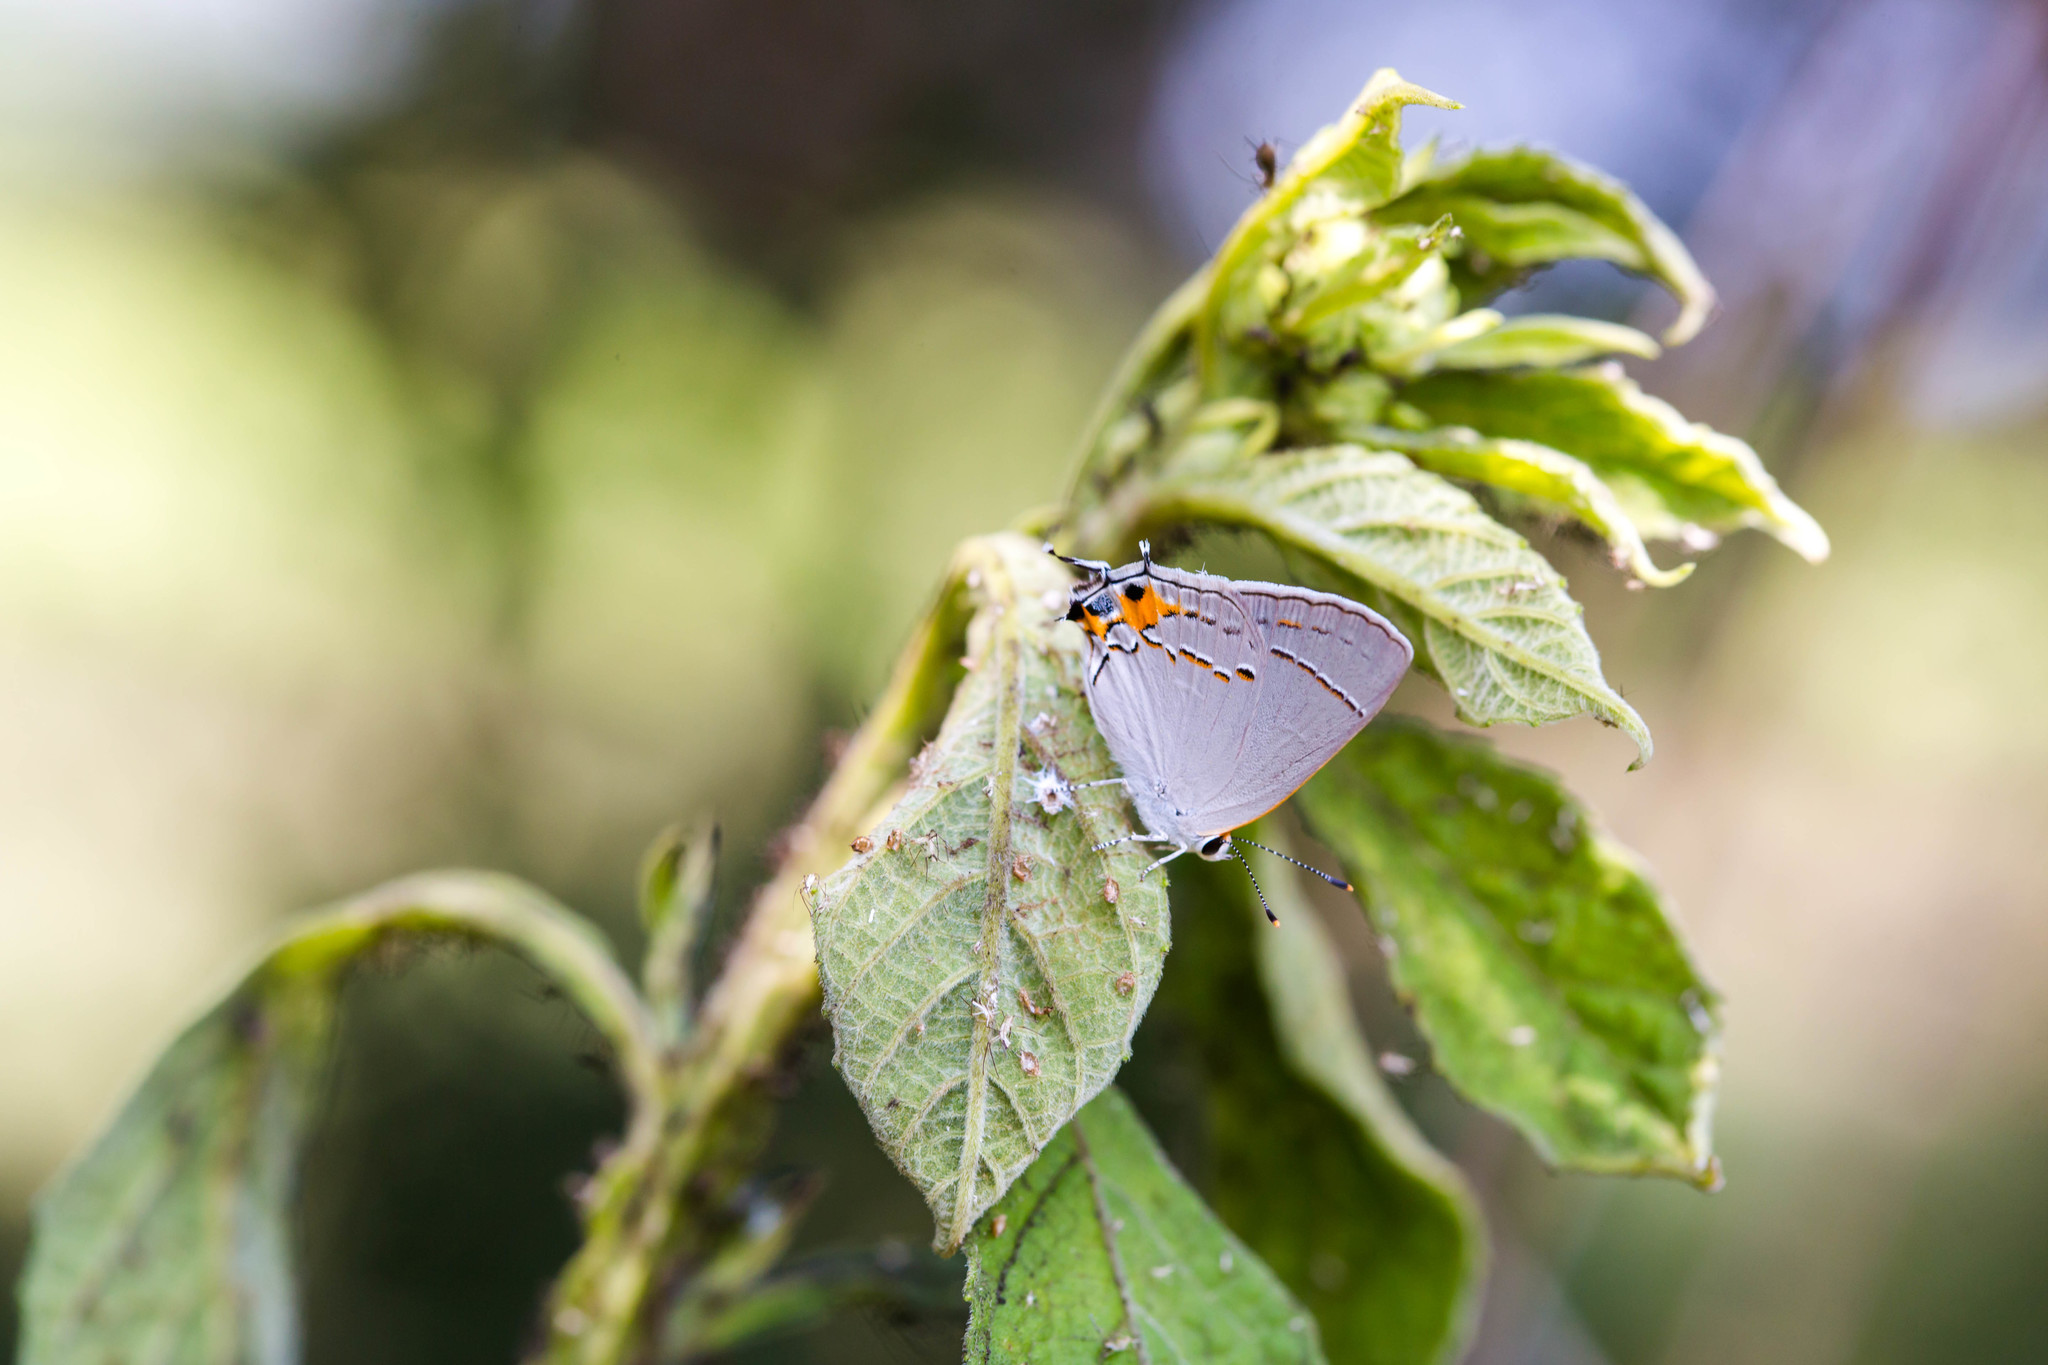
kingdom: Animalia
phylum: Arthropoda
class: Insecta
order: Lepidoptera
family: Lycaenidae
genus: Strymon
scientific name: Strymon melinus
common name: Gray hairstreak
